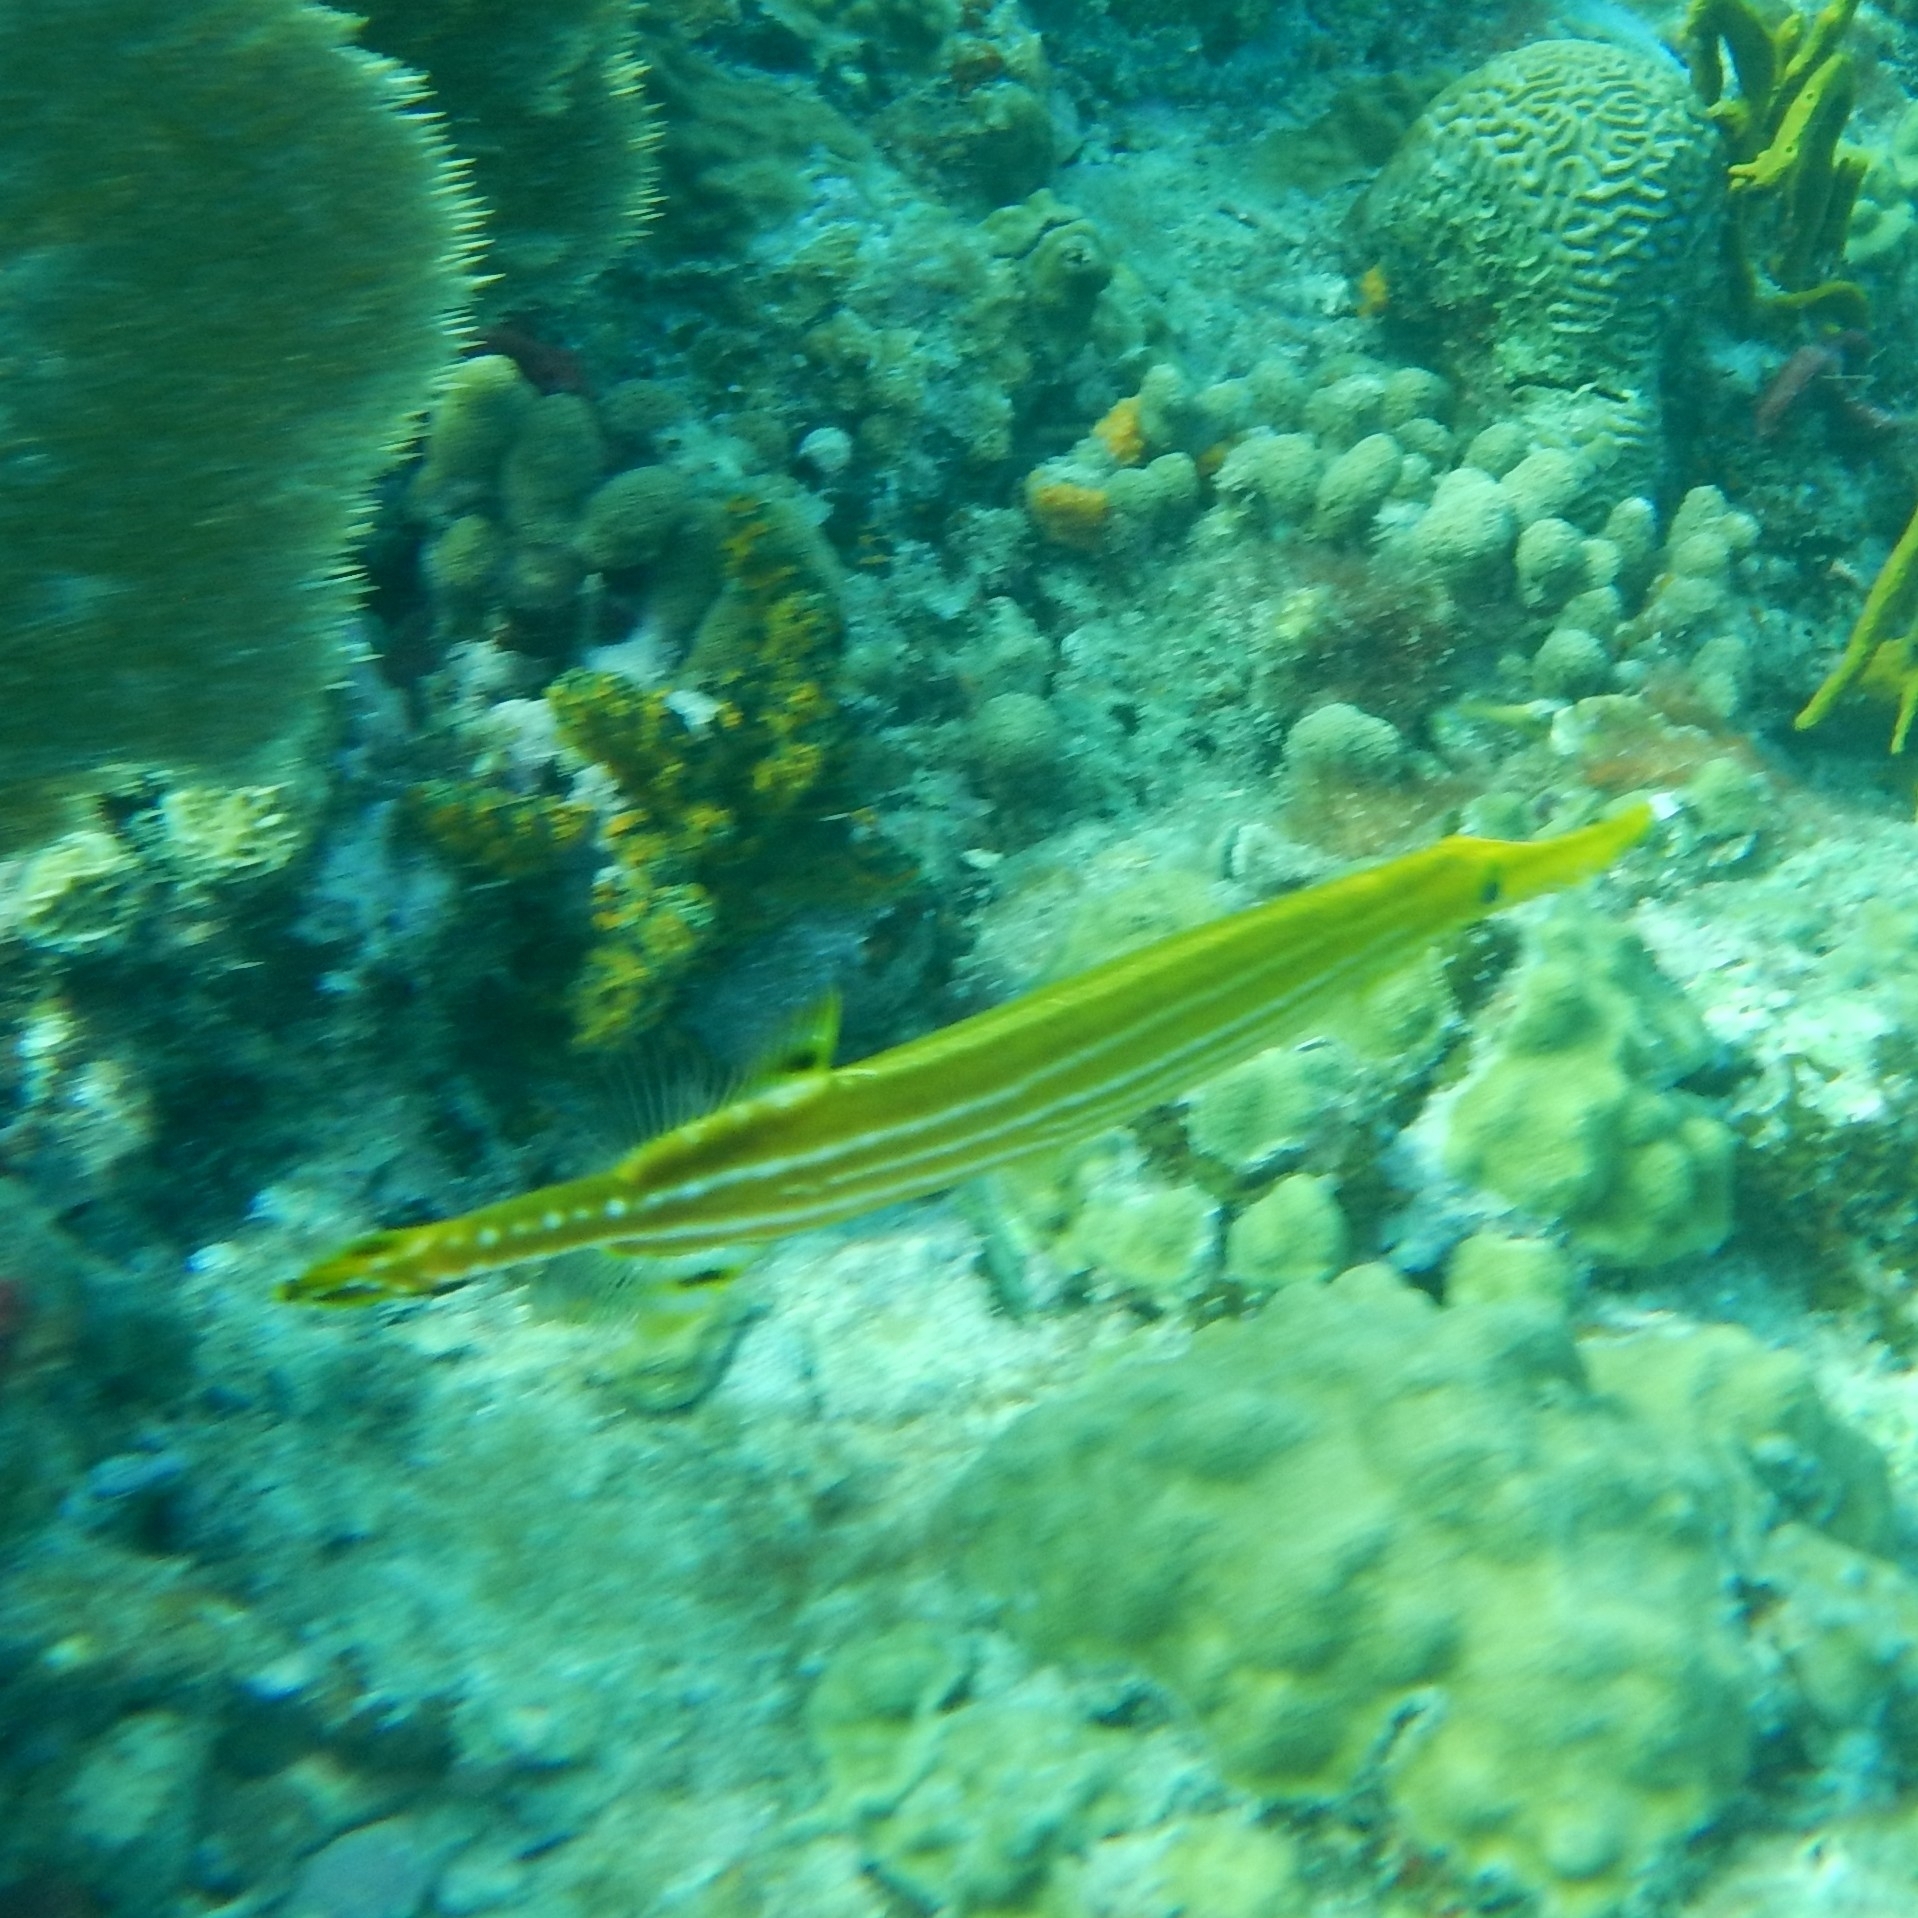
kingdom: Animalia
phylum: Chordata
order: Syngnathiformes
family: Aulostomidae
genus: Aulostomus
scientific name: Aulostomus maculatus
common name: West atlantic trumpetfish
